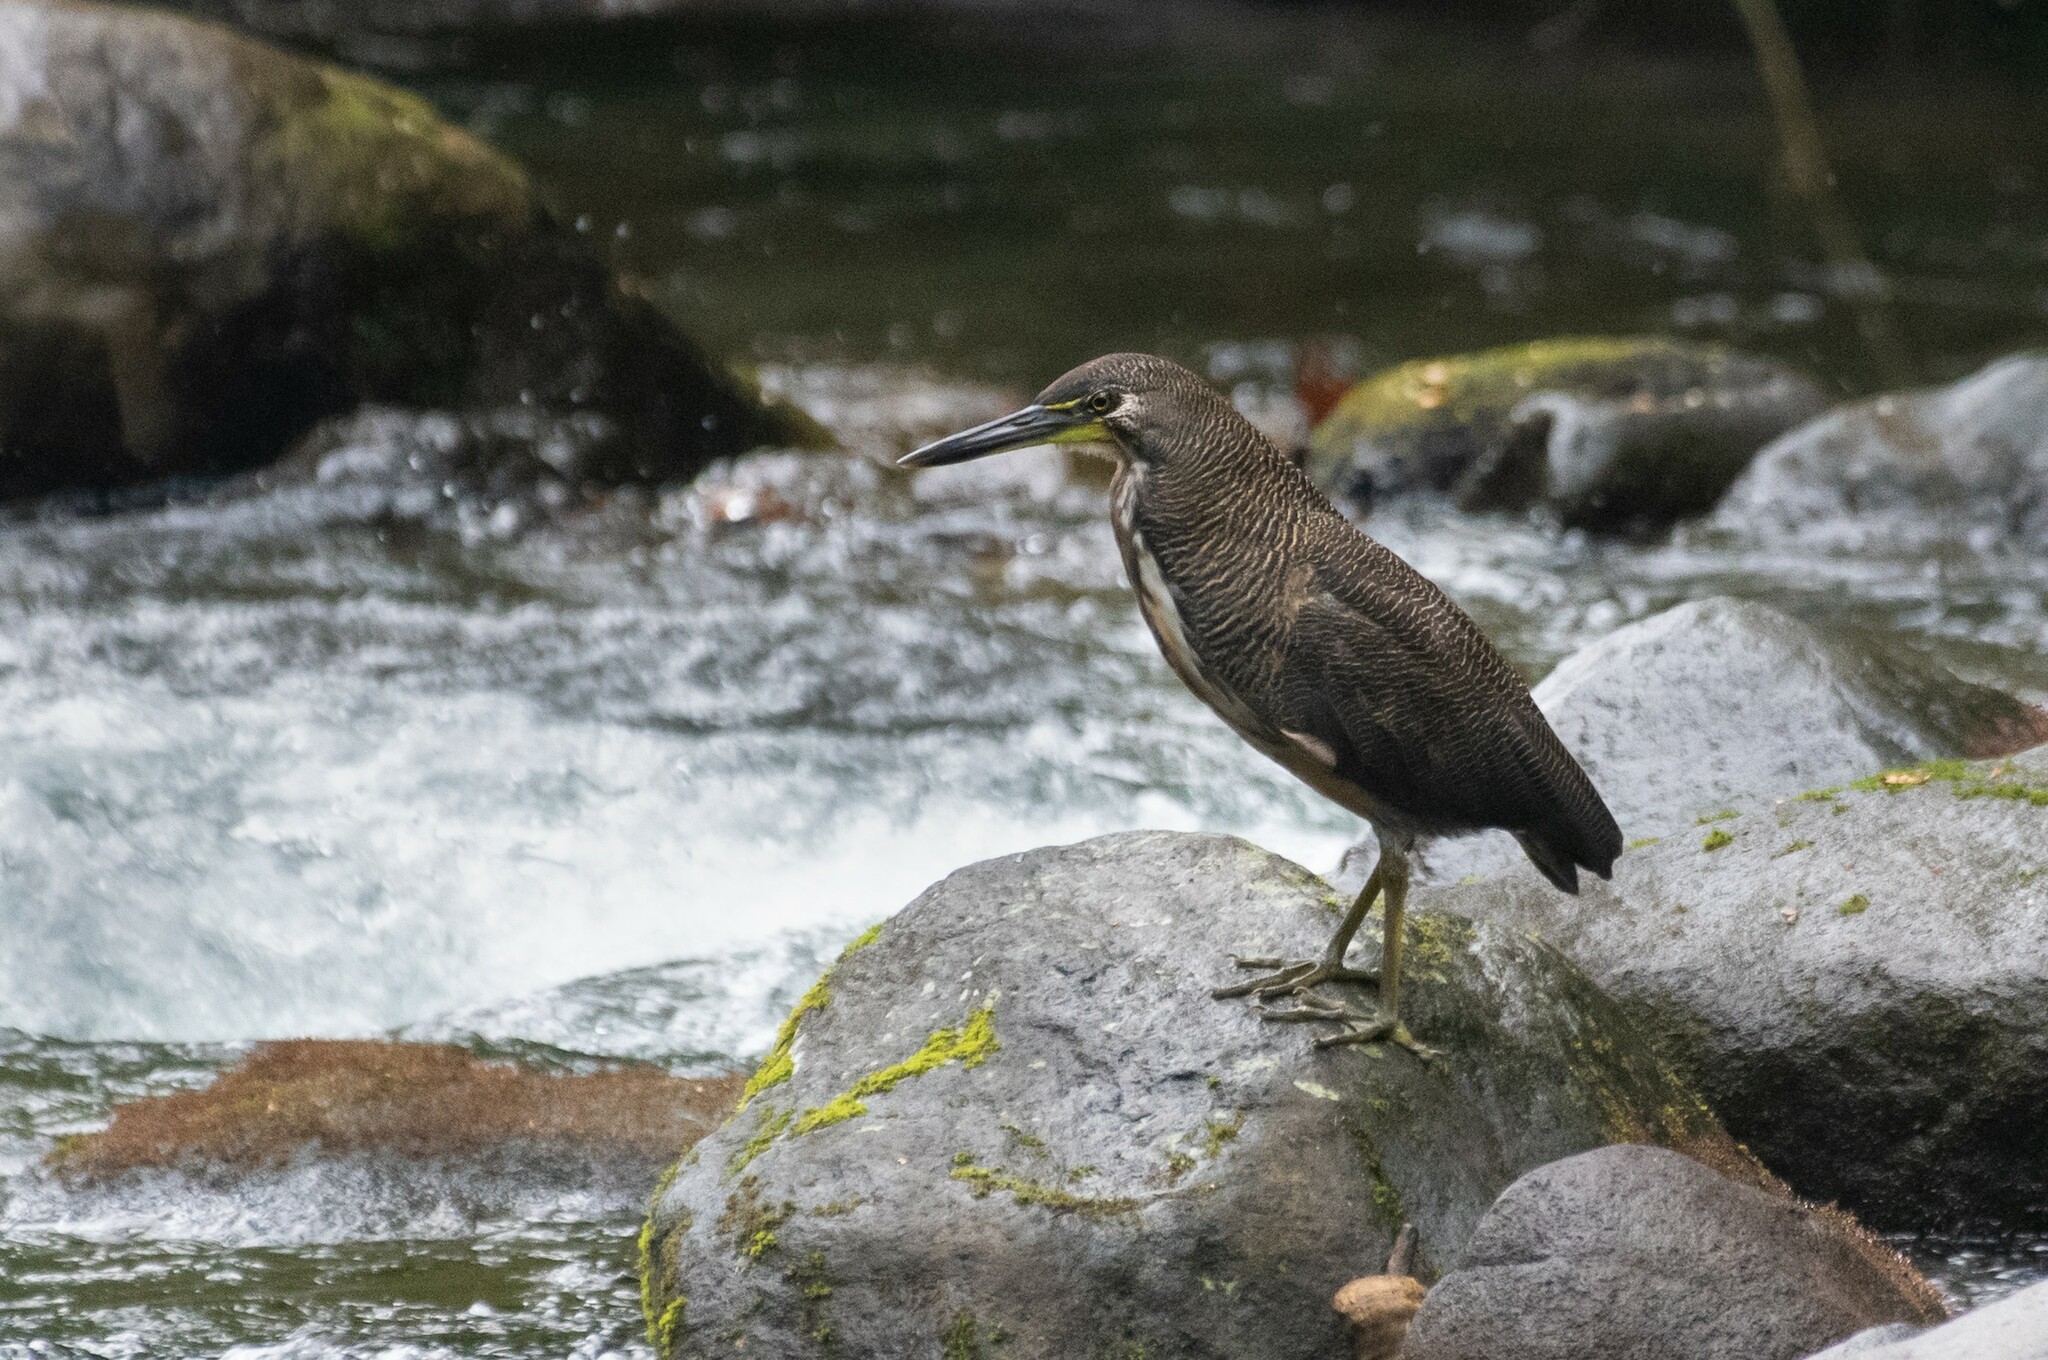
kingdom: Animalia
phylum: Chordata
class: Aves
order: Pelecaniformes
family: Ardeidae
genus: Tigrisoma
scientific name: Tigrisoma fasciatum
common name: Fasciated tiger-heron
